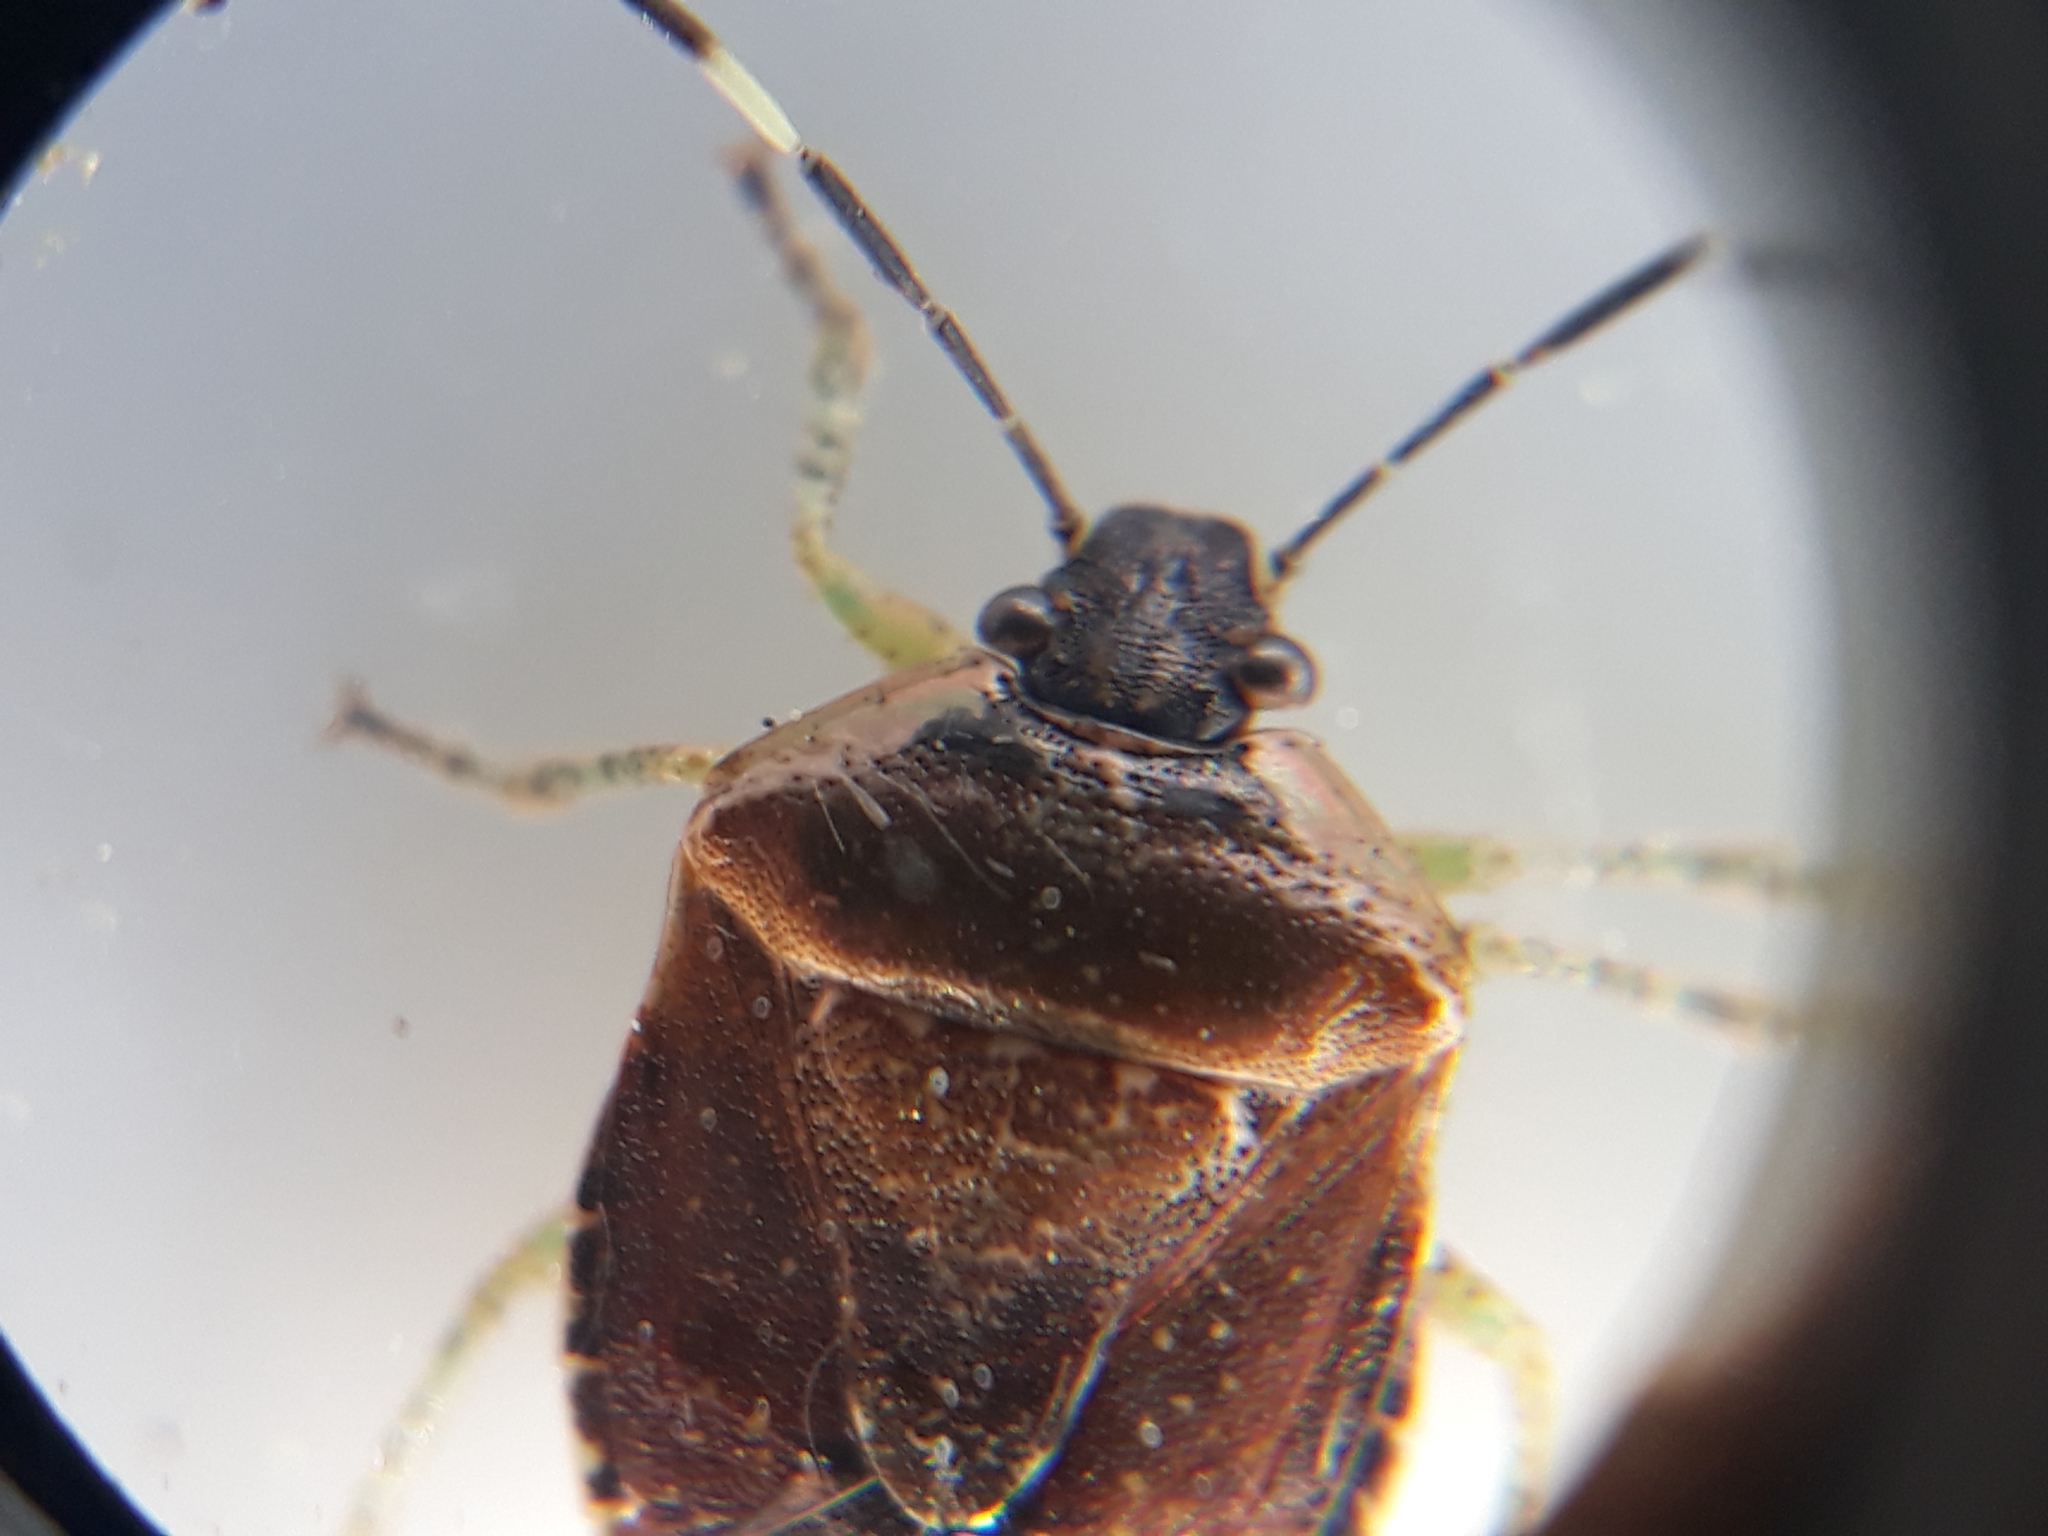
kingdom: Animalia
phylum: Arthropoda
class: Insecta
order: Hemiptera
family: Pentatomidae
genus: Monteithiella
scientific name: Monteithiella
